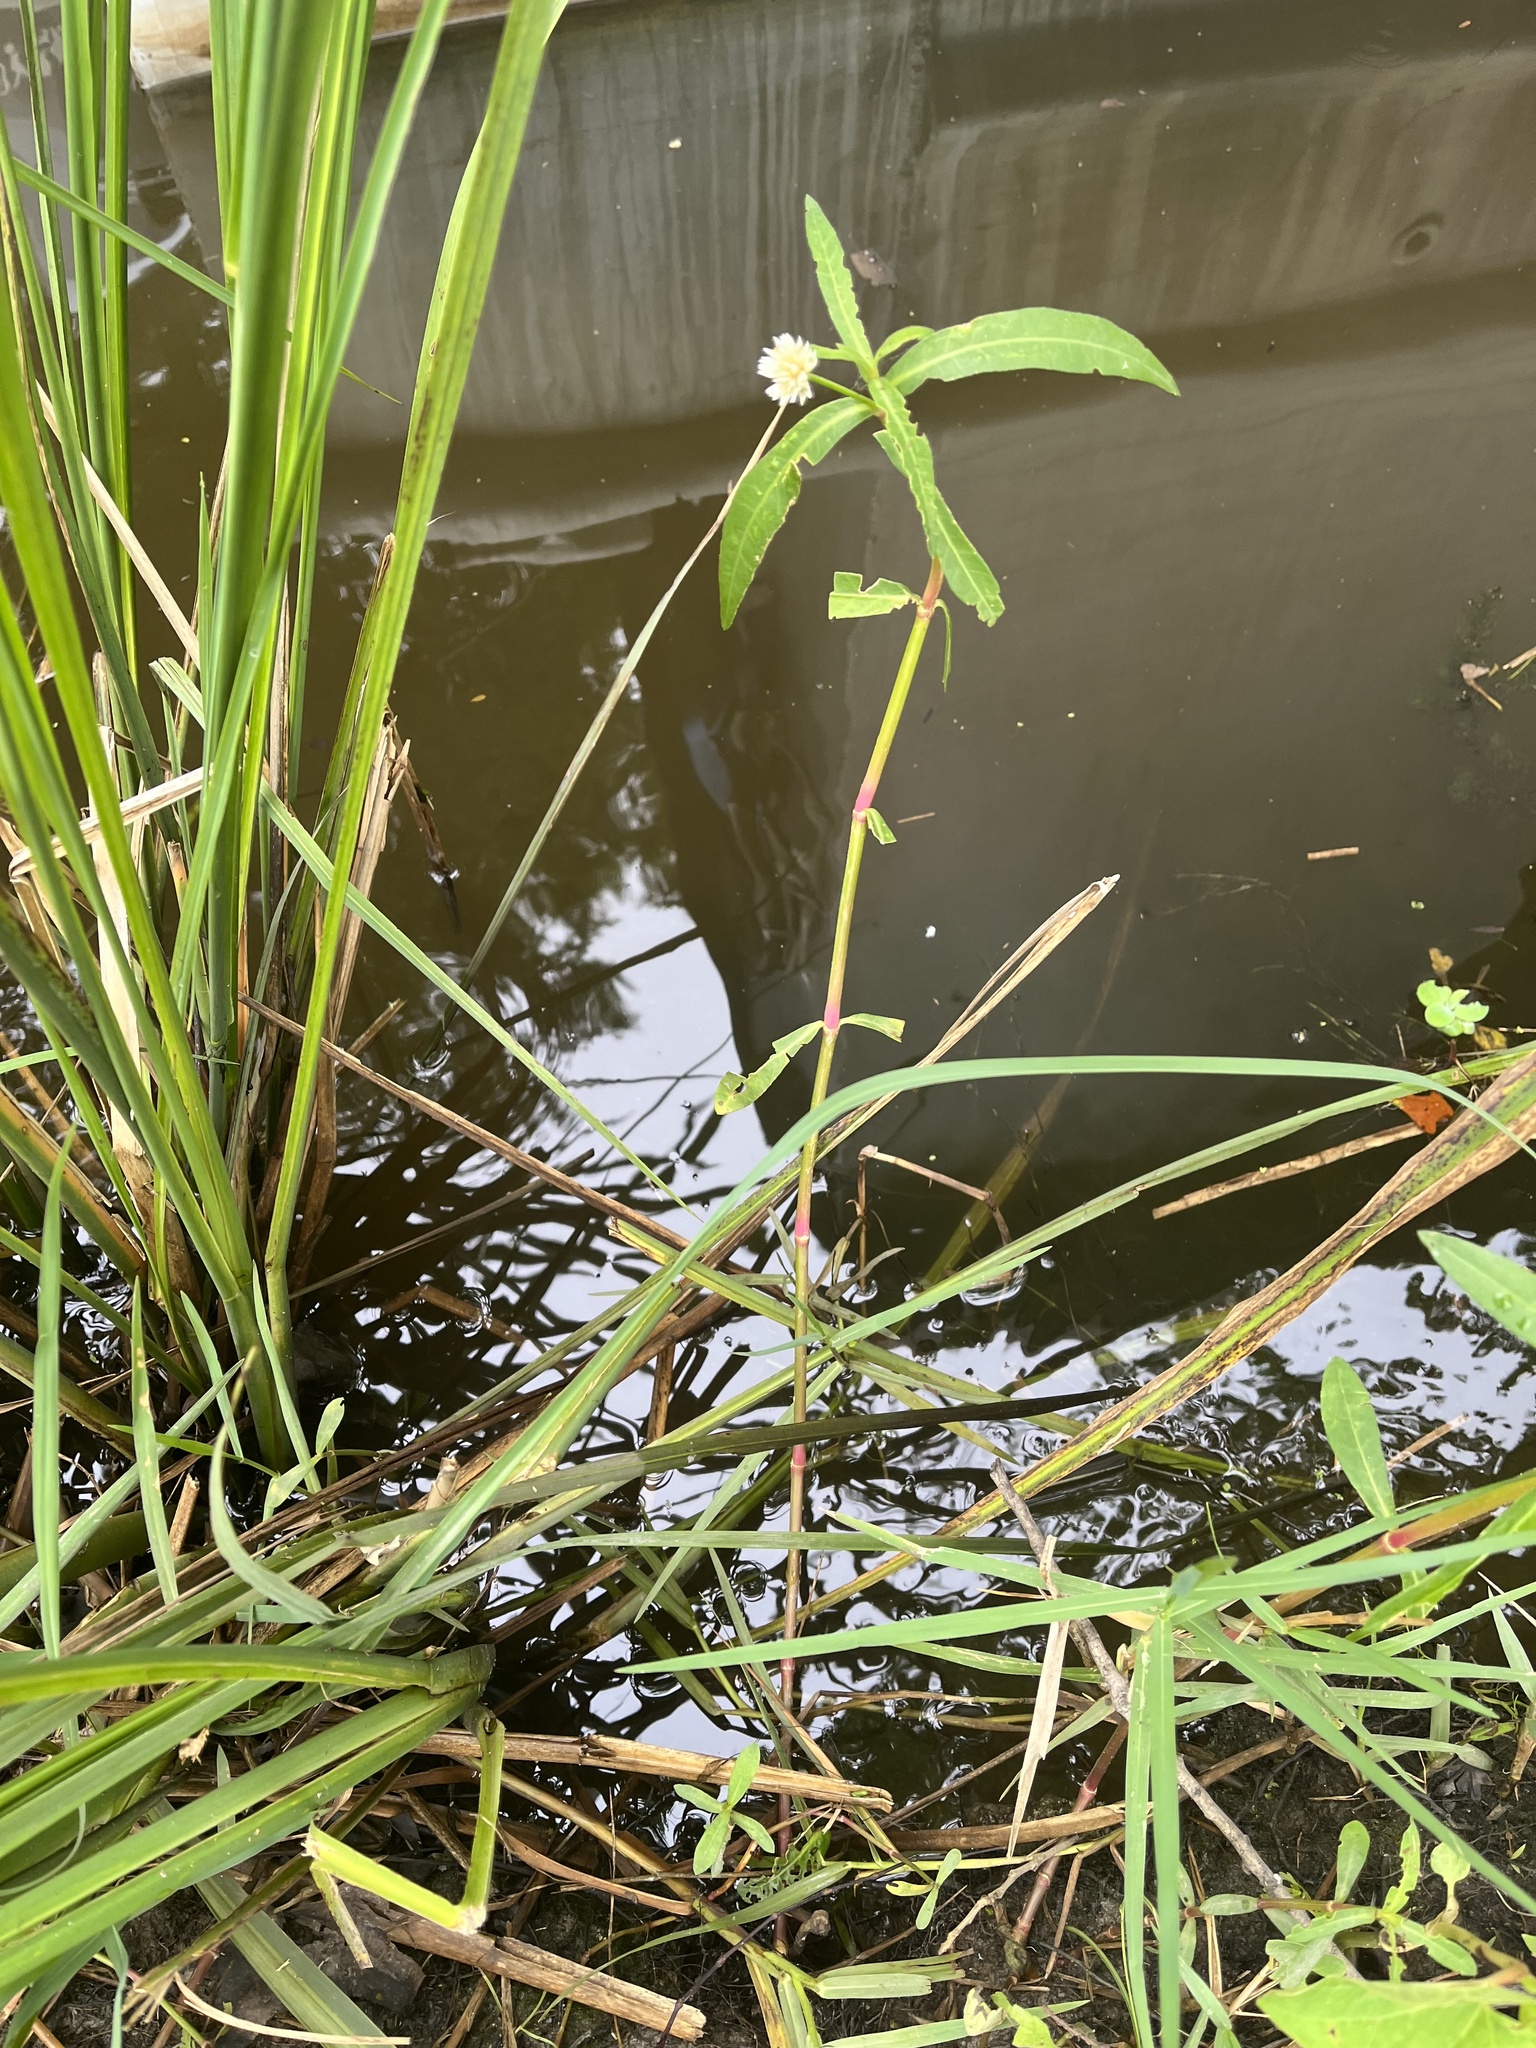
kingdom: Plantae
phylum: Tracheophyta
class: Magnoliopsida
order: Caryophyllales
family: Amaranthaceae
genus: Alternanthera
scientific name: Alternanthera philoxeroides
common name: Alligatorweed
